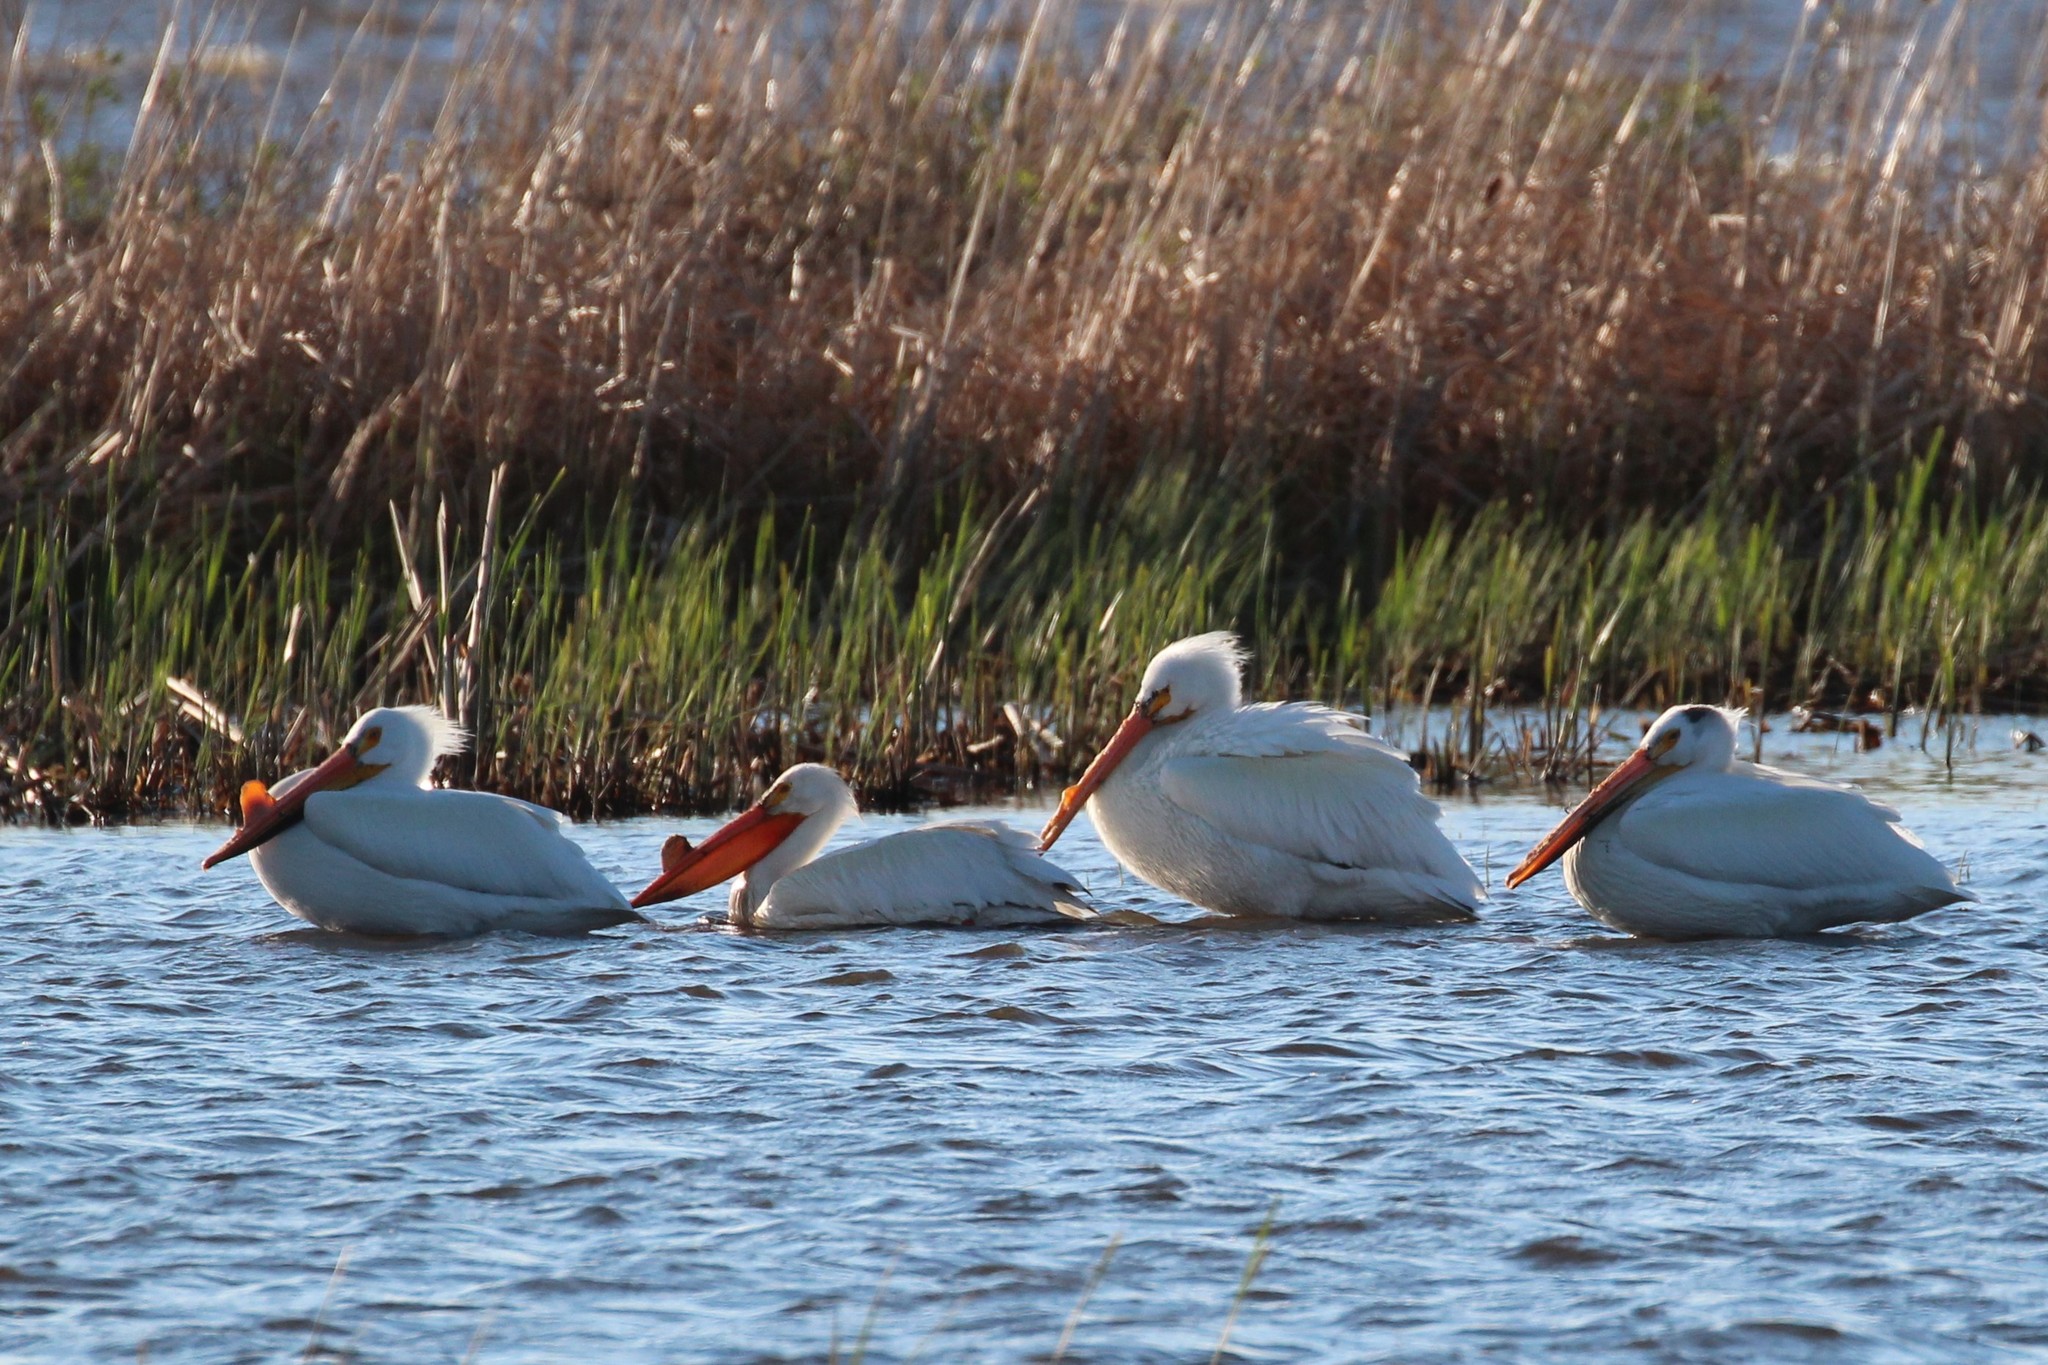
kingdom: Animalia
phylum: Chordata
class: Aves
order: Pelecaniformes
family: Pelecanidae
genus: Pelecanus
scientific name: Pelecanus erythrorhynchos
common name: American white pelican
